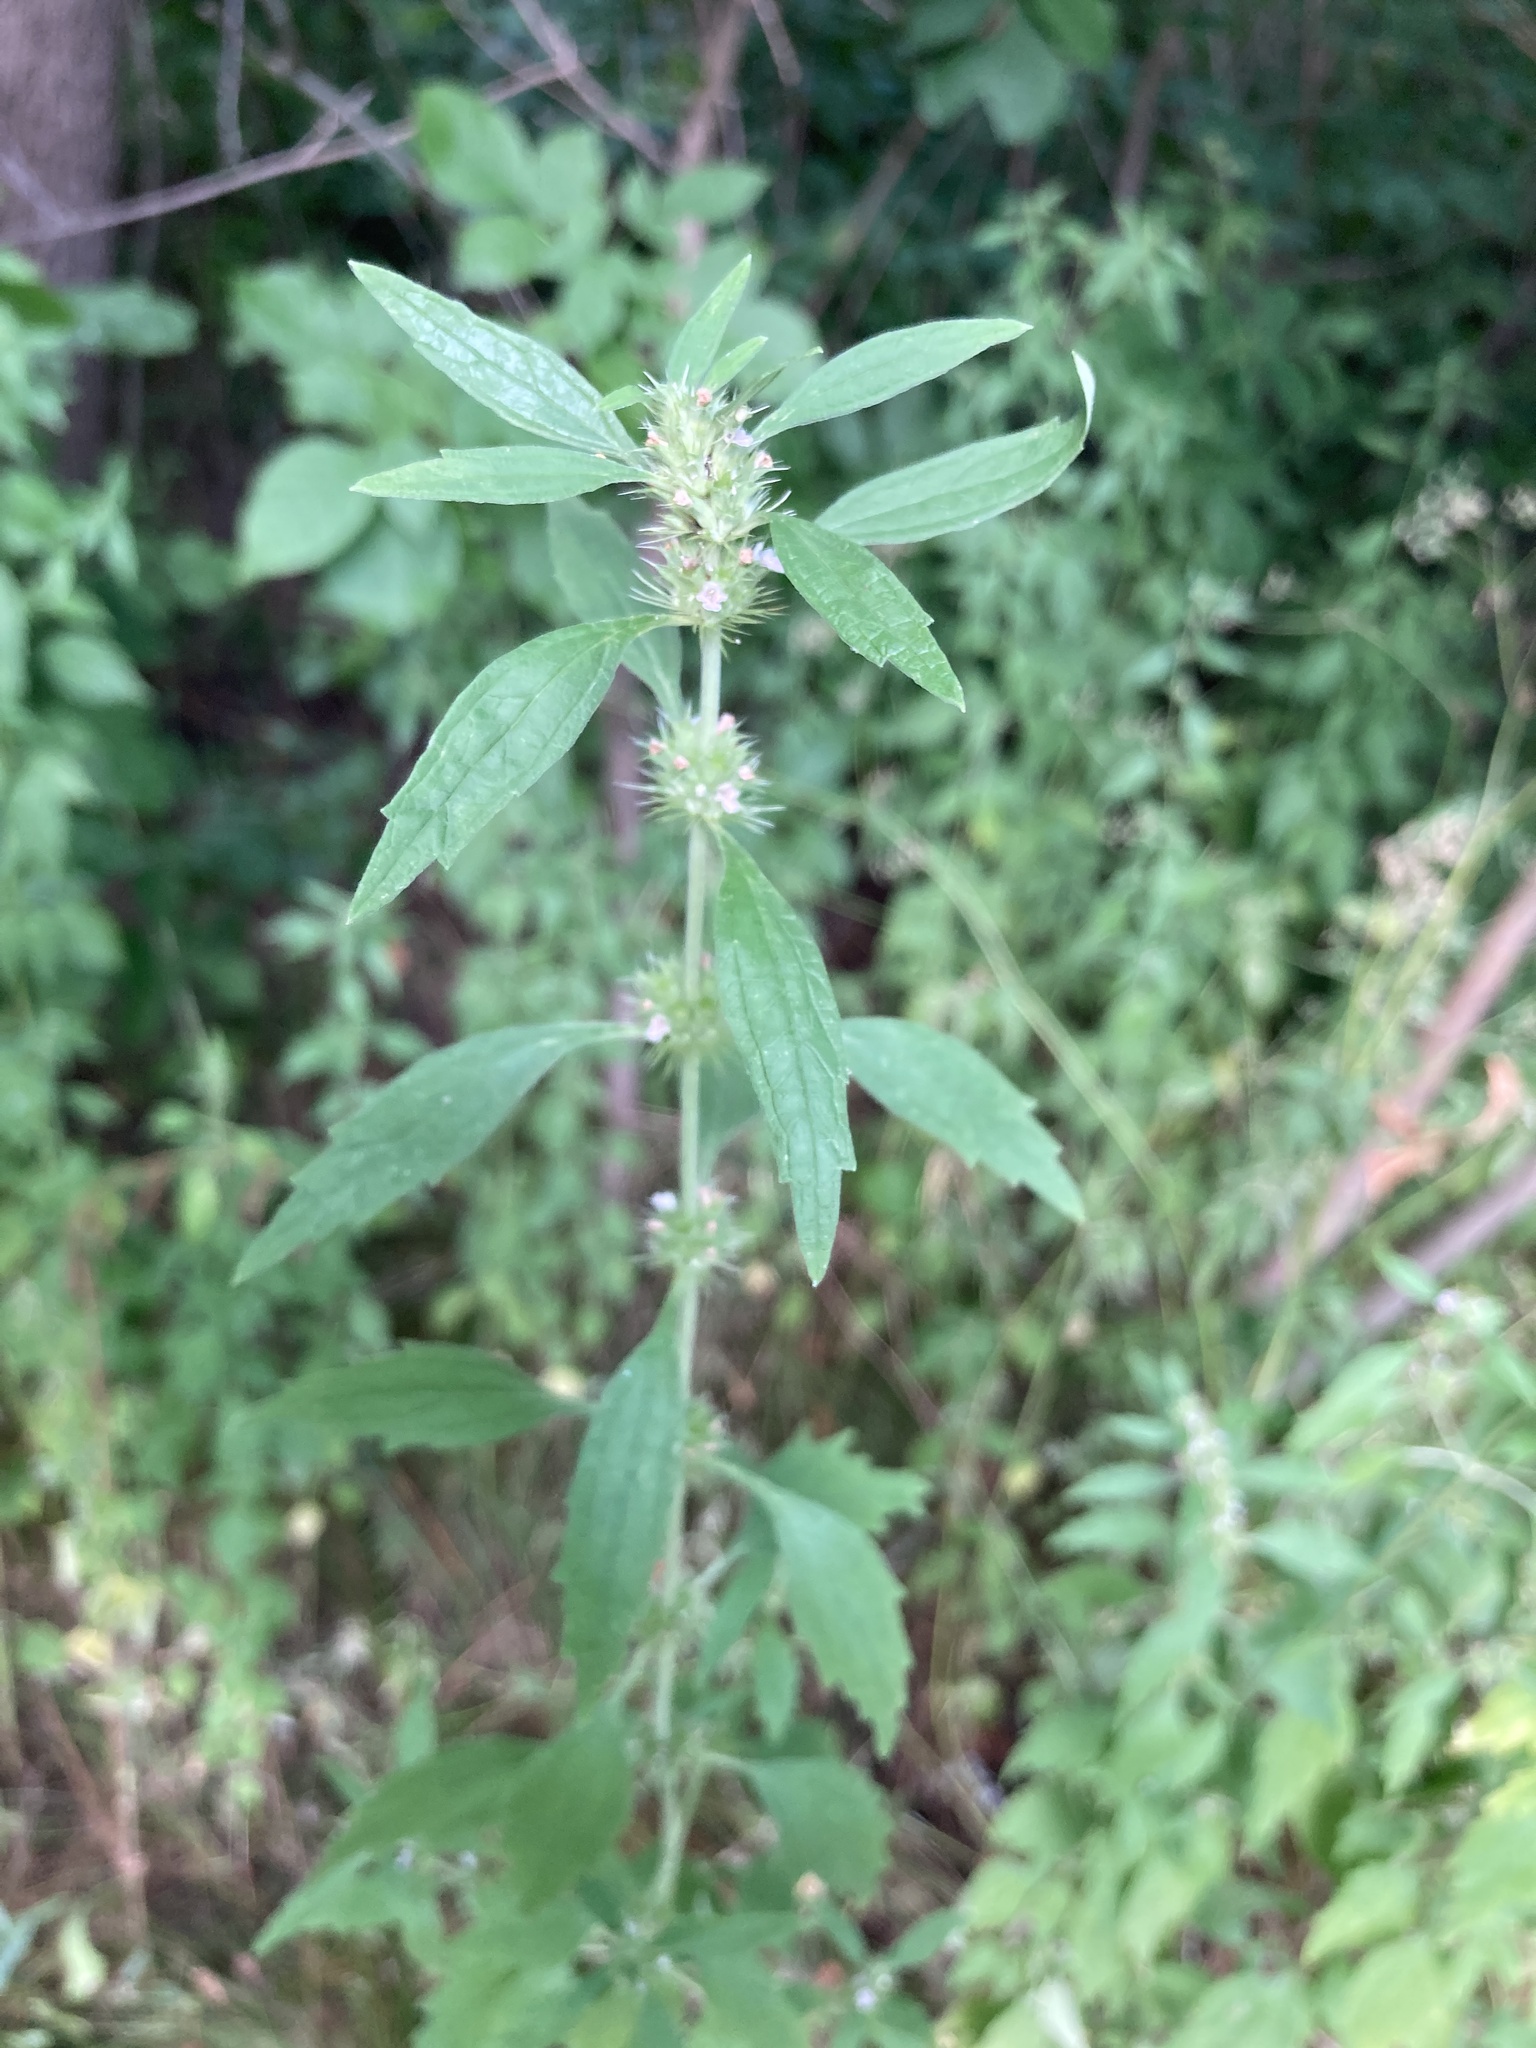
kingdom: Plantae
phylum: Tracheophyta
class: Magnoliopsida
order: Lamiales
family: Lamiaceae
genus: Chaiturus
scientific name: Chaiturus marrubiastrum
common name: Lion's tail
